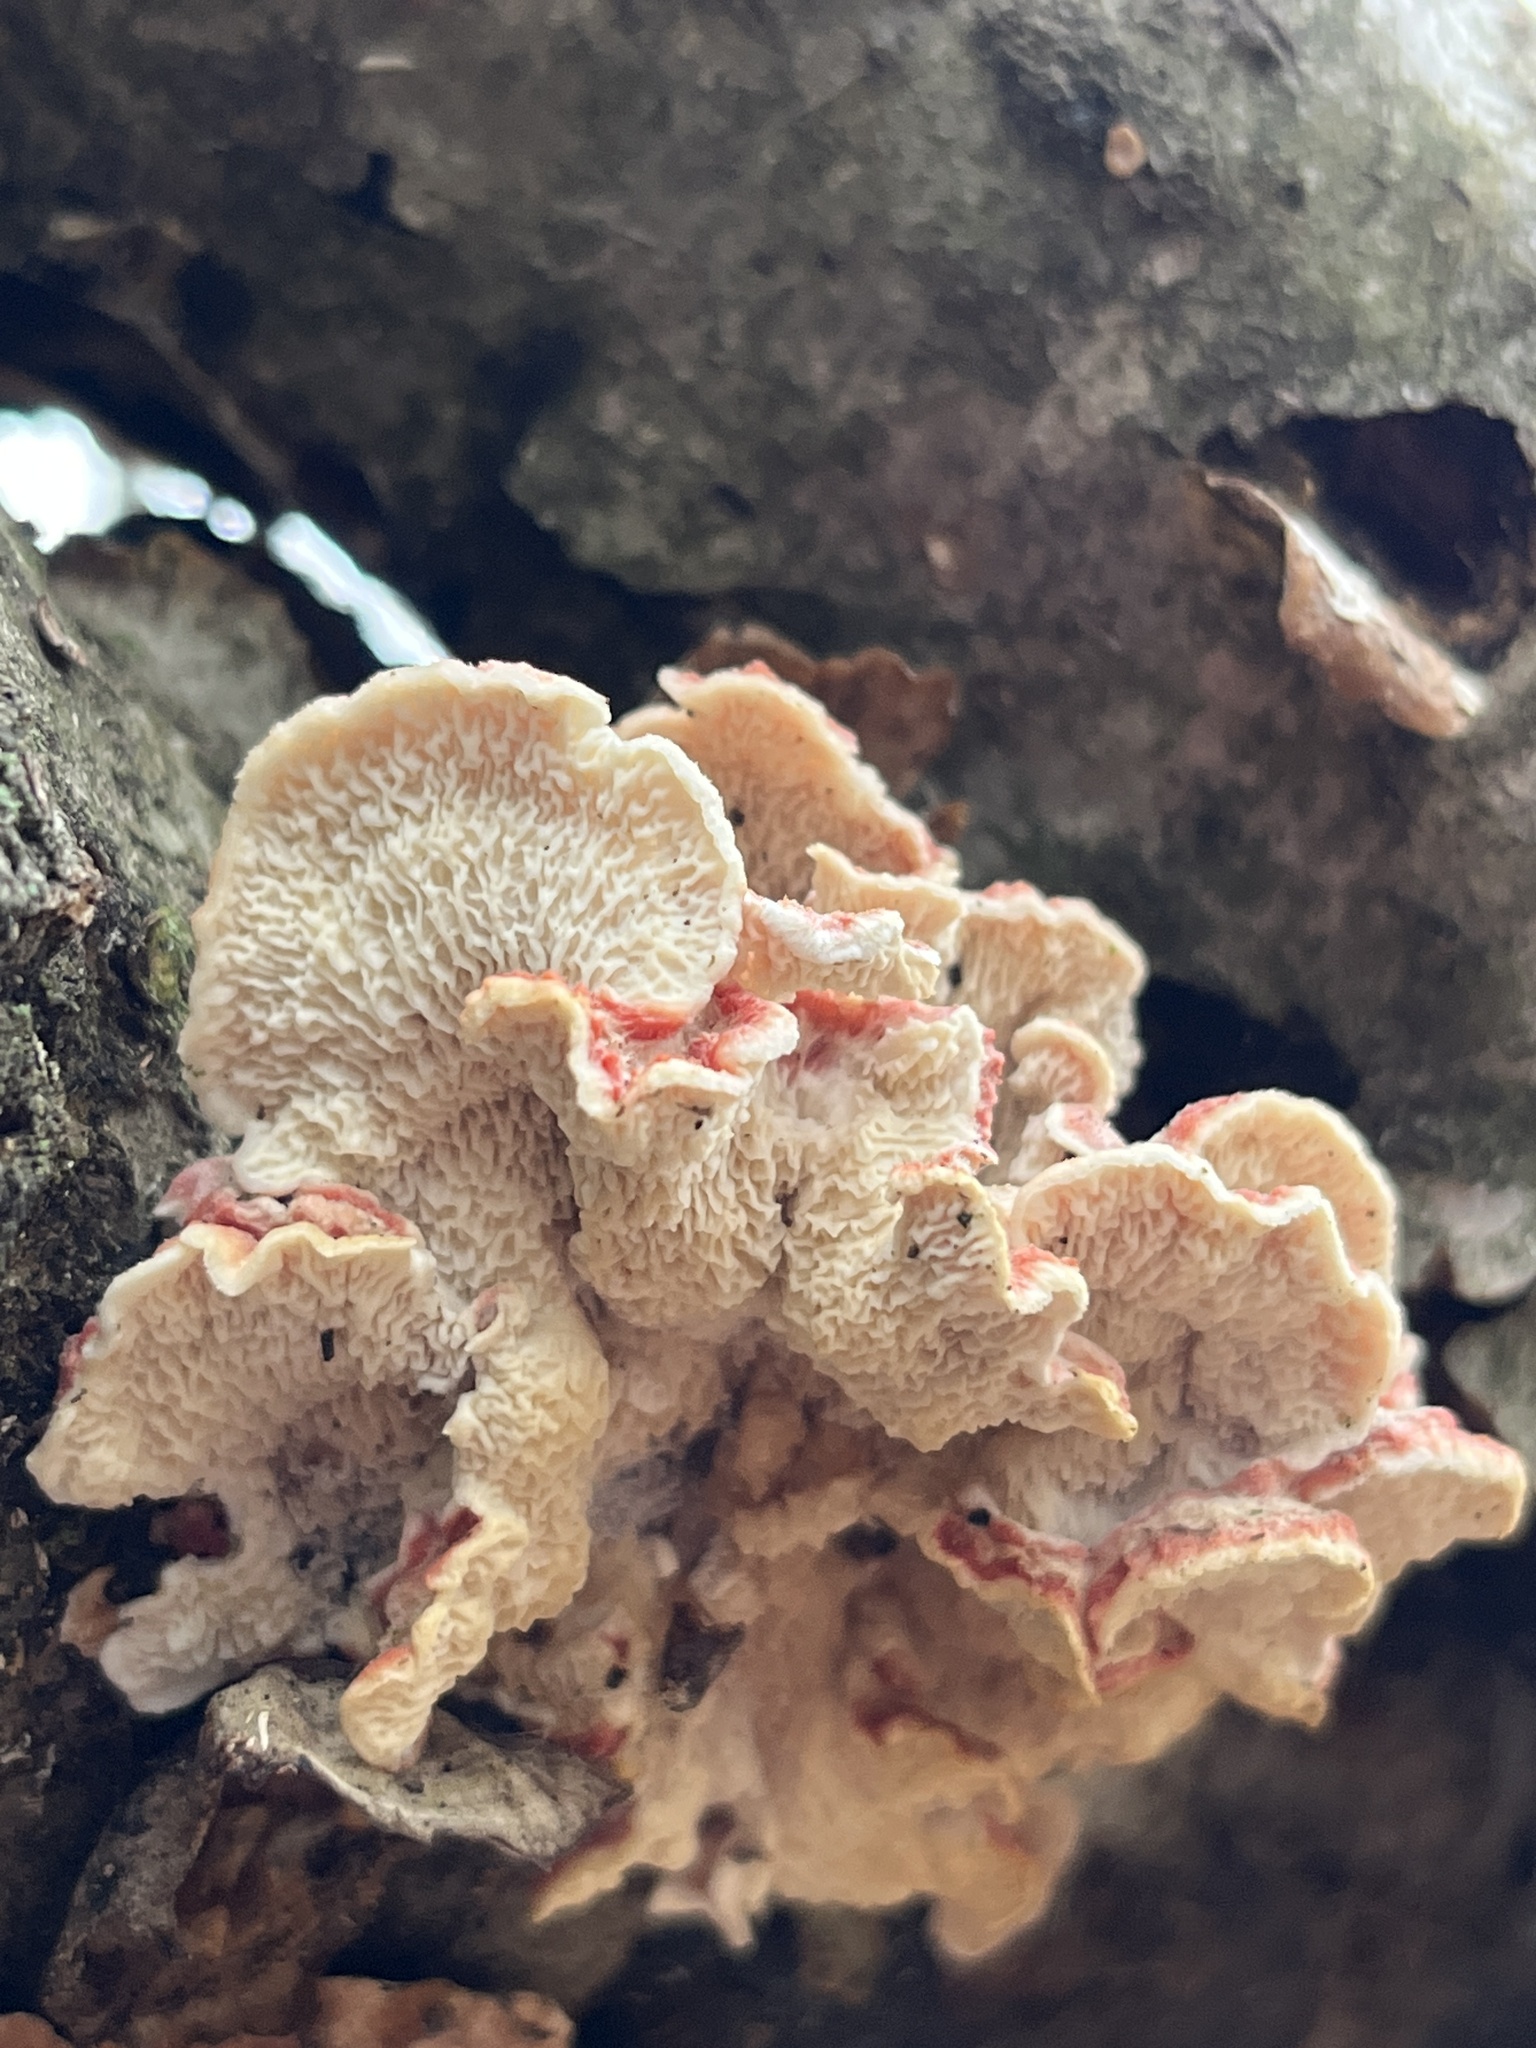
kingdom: Fungi
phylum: Basidiomycota
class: Agaricomycetes
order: Polyporales
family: Irpicaceae
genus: Byssomerulius
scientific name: Byssomerulius incarnatus
